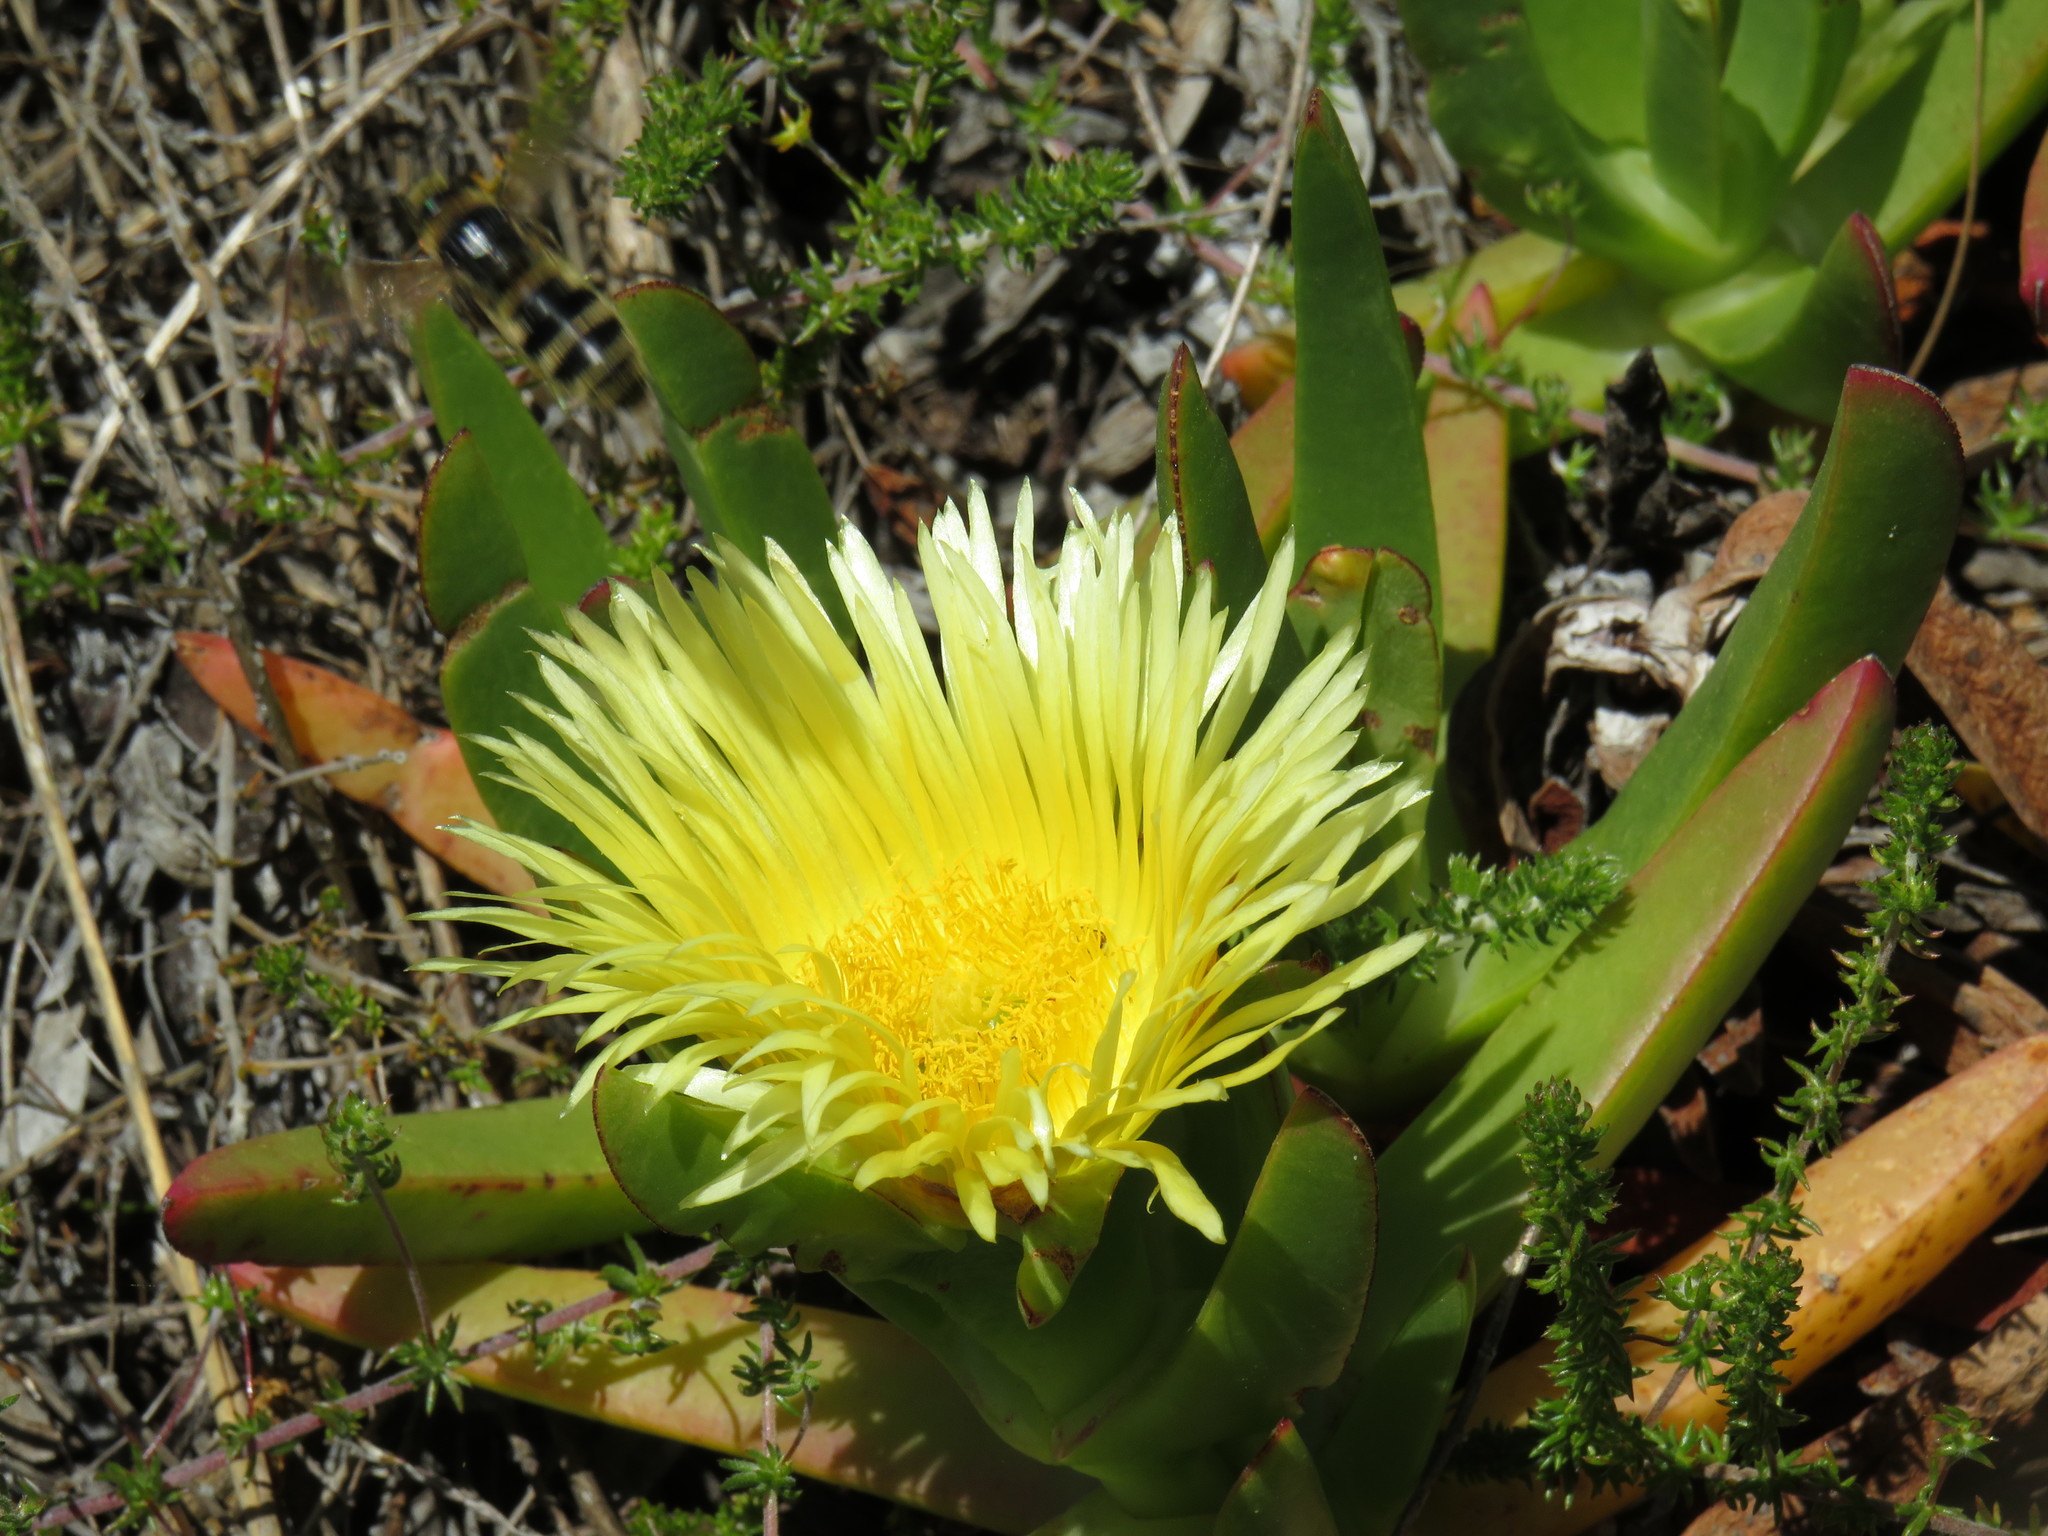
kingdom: Plantae
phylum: Tracheophyta
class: Magnoliopsida
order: Caryophyllales
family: Aizoaceae
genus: Carpobrotus
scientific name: Carpobrotus edulis
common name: Hottentot-fig
